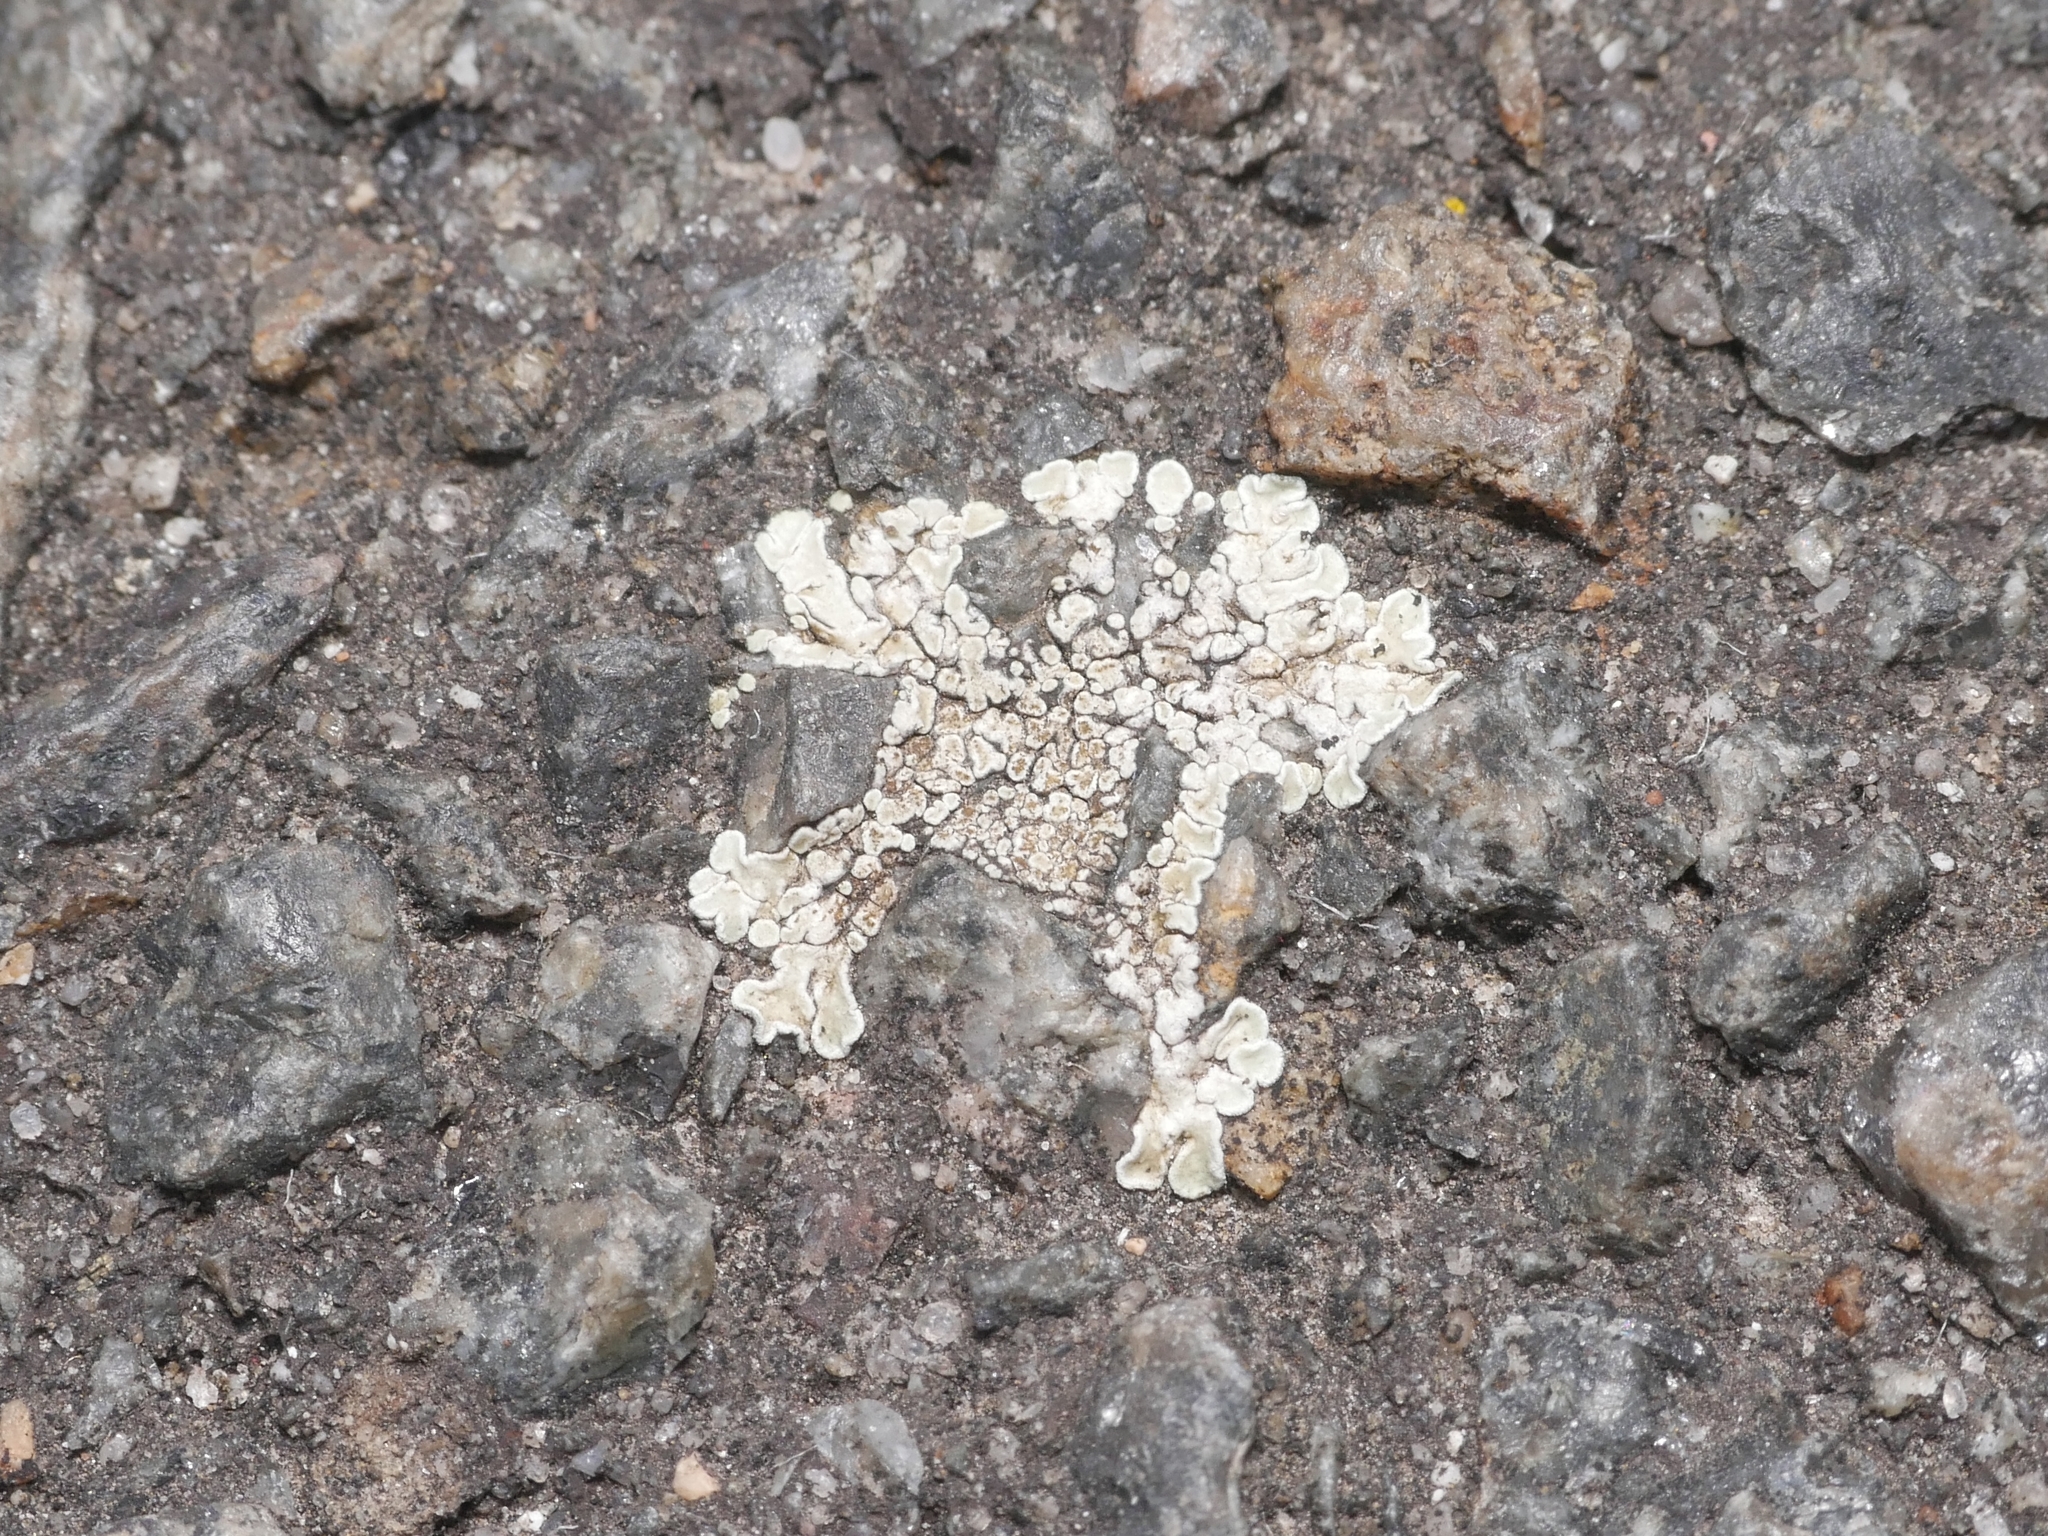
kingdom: Fungi
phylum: Ascomycota
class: Lecanoromycetes
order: Lecanorales
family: Lecanoraceae
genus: Protoparmeliopsis
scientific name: Protoparmeliopsis muralis
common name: Stonewall rim lichen
